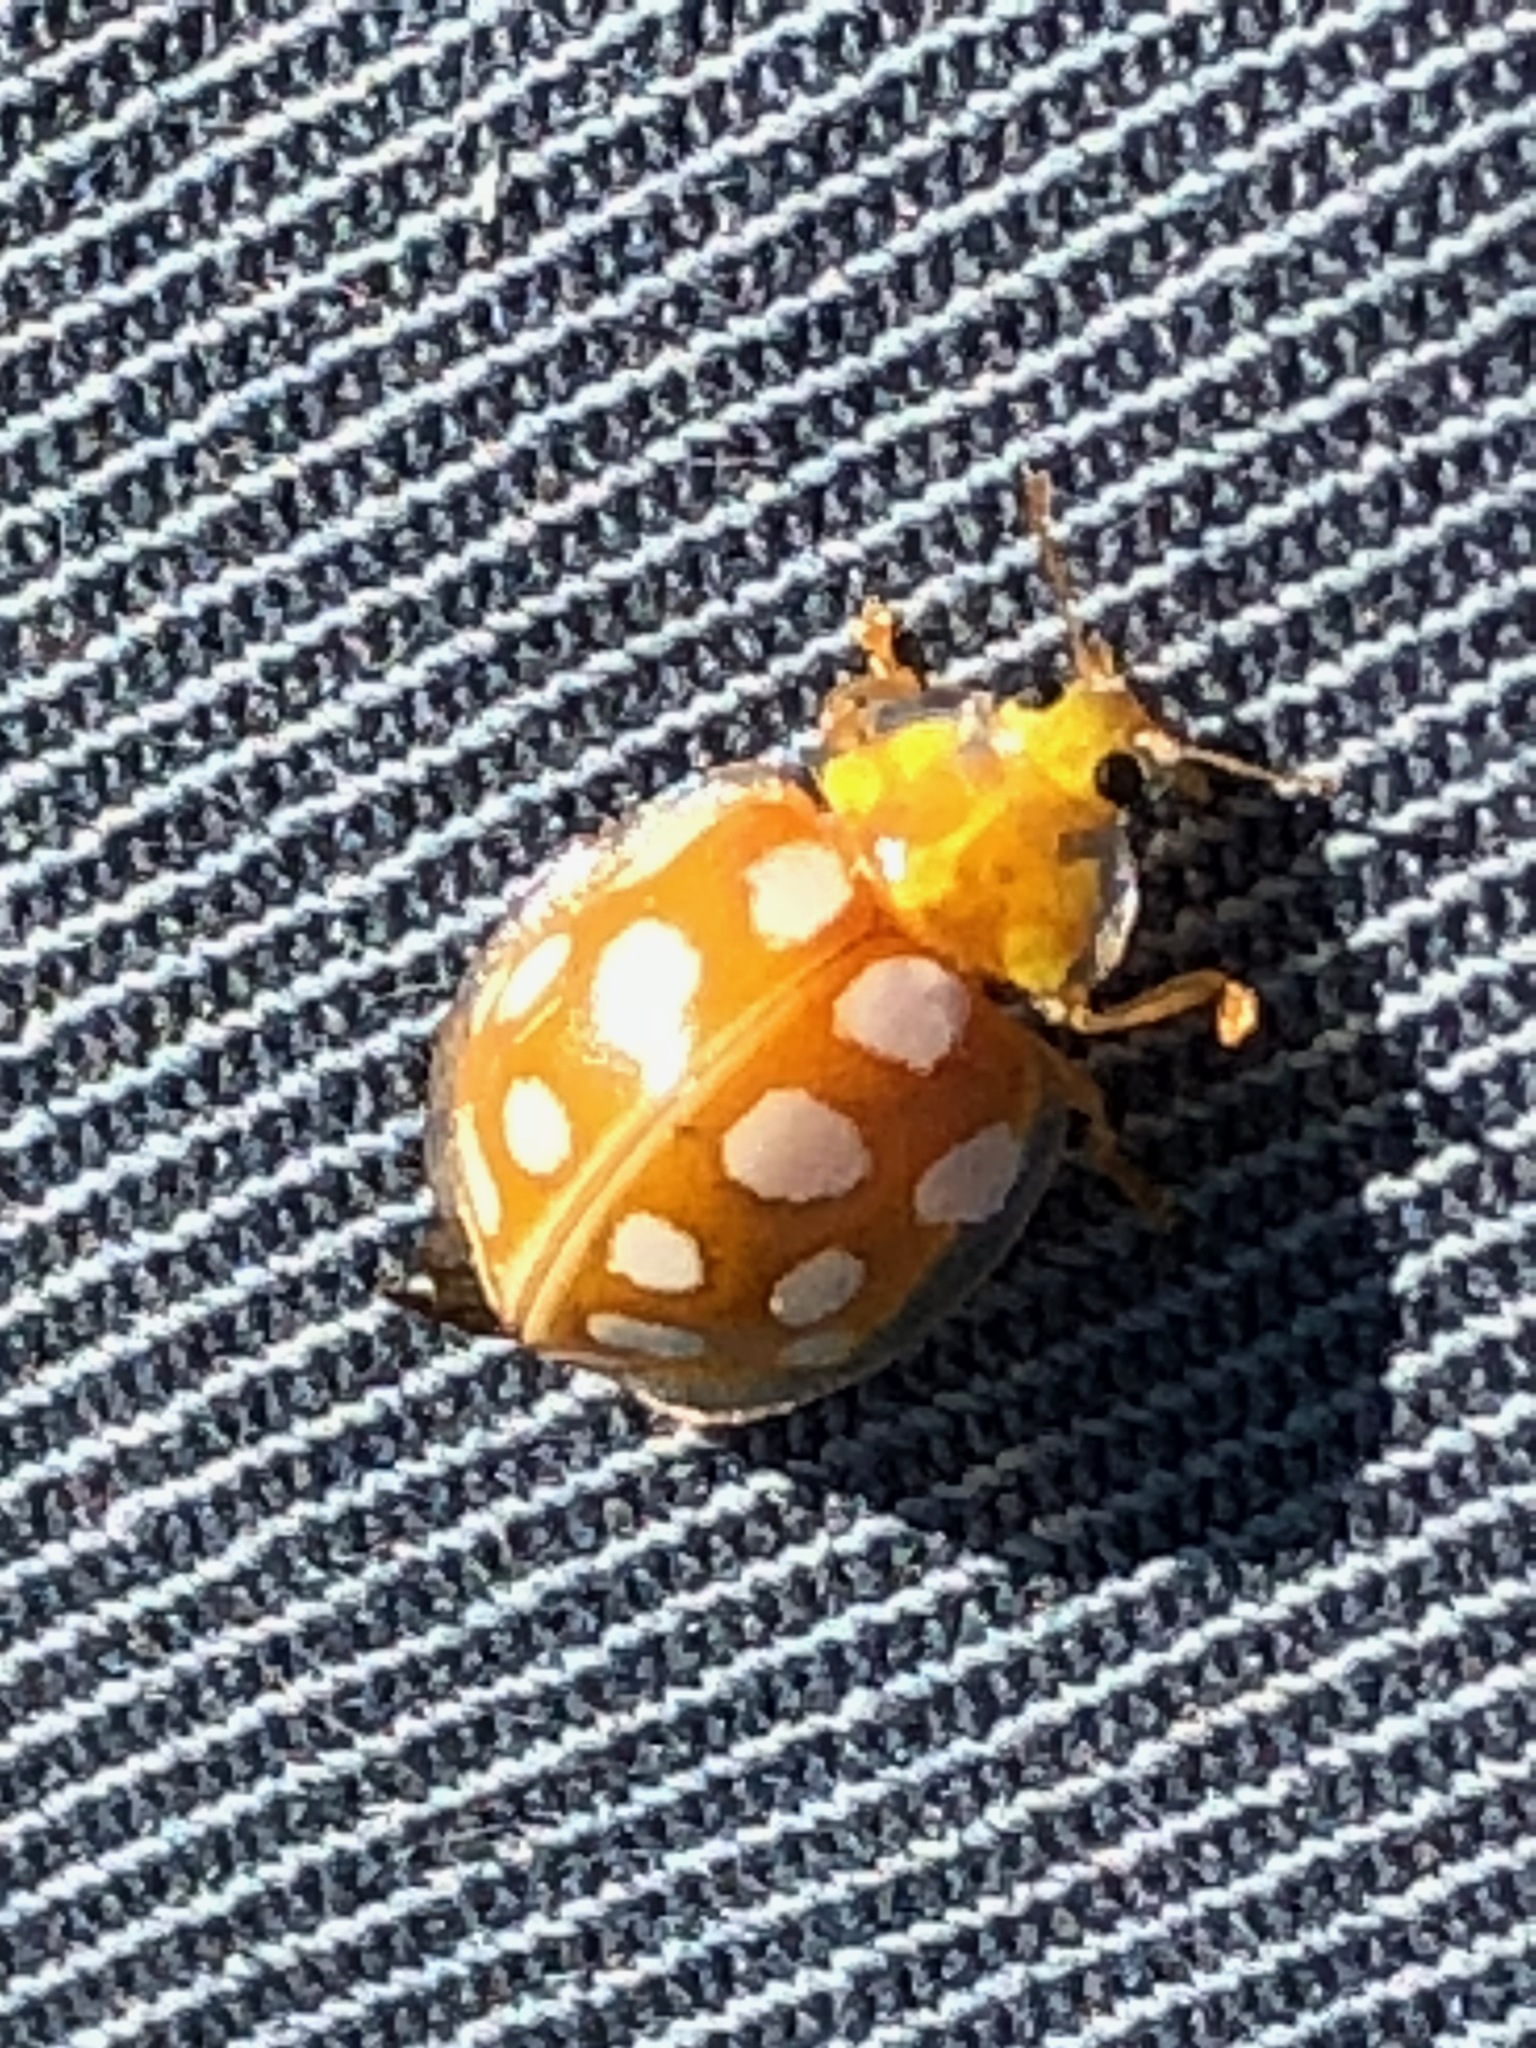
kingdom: Animalia
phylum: Arthropoda
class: Insecta
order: Coleoptera
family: Coccinellidae
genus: Halyzia
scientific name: Halyzia sedecimguttata
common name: Orange ladybird
